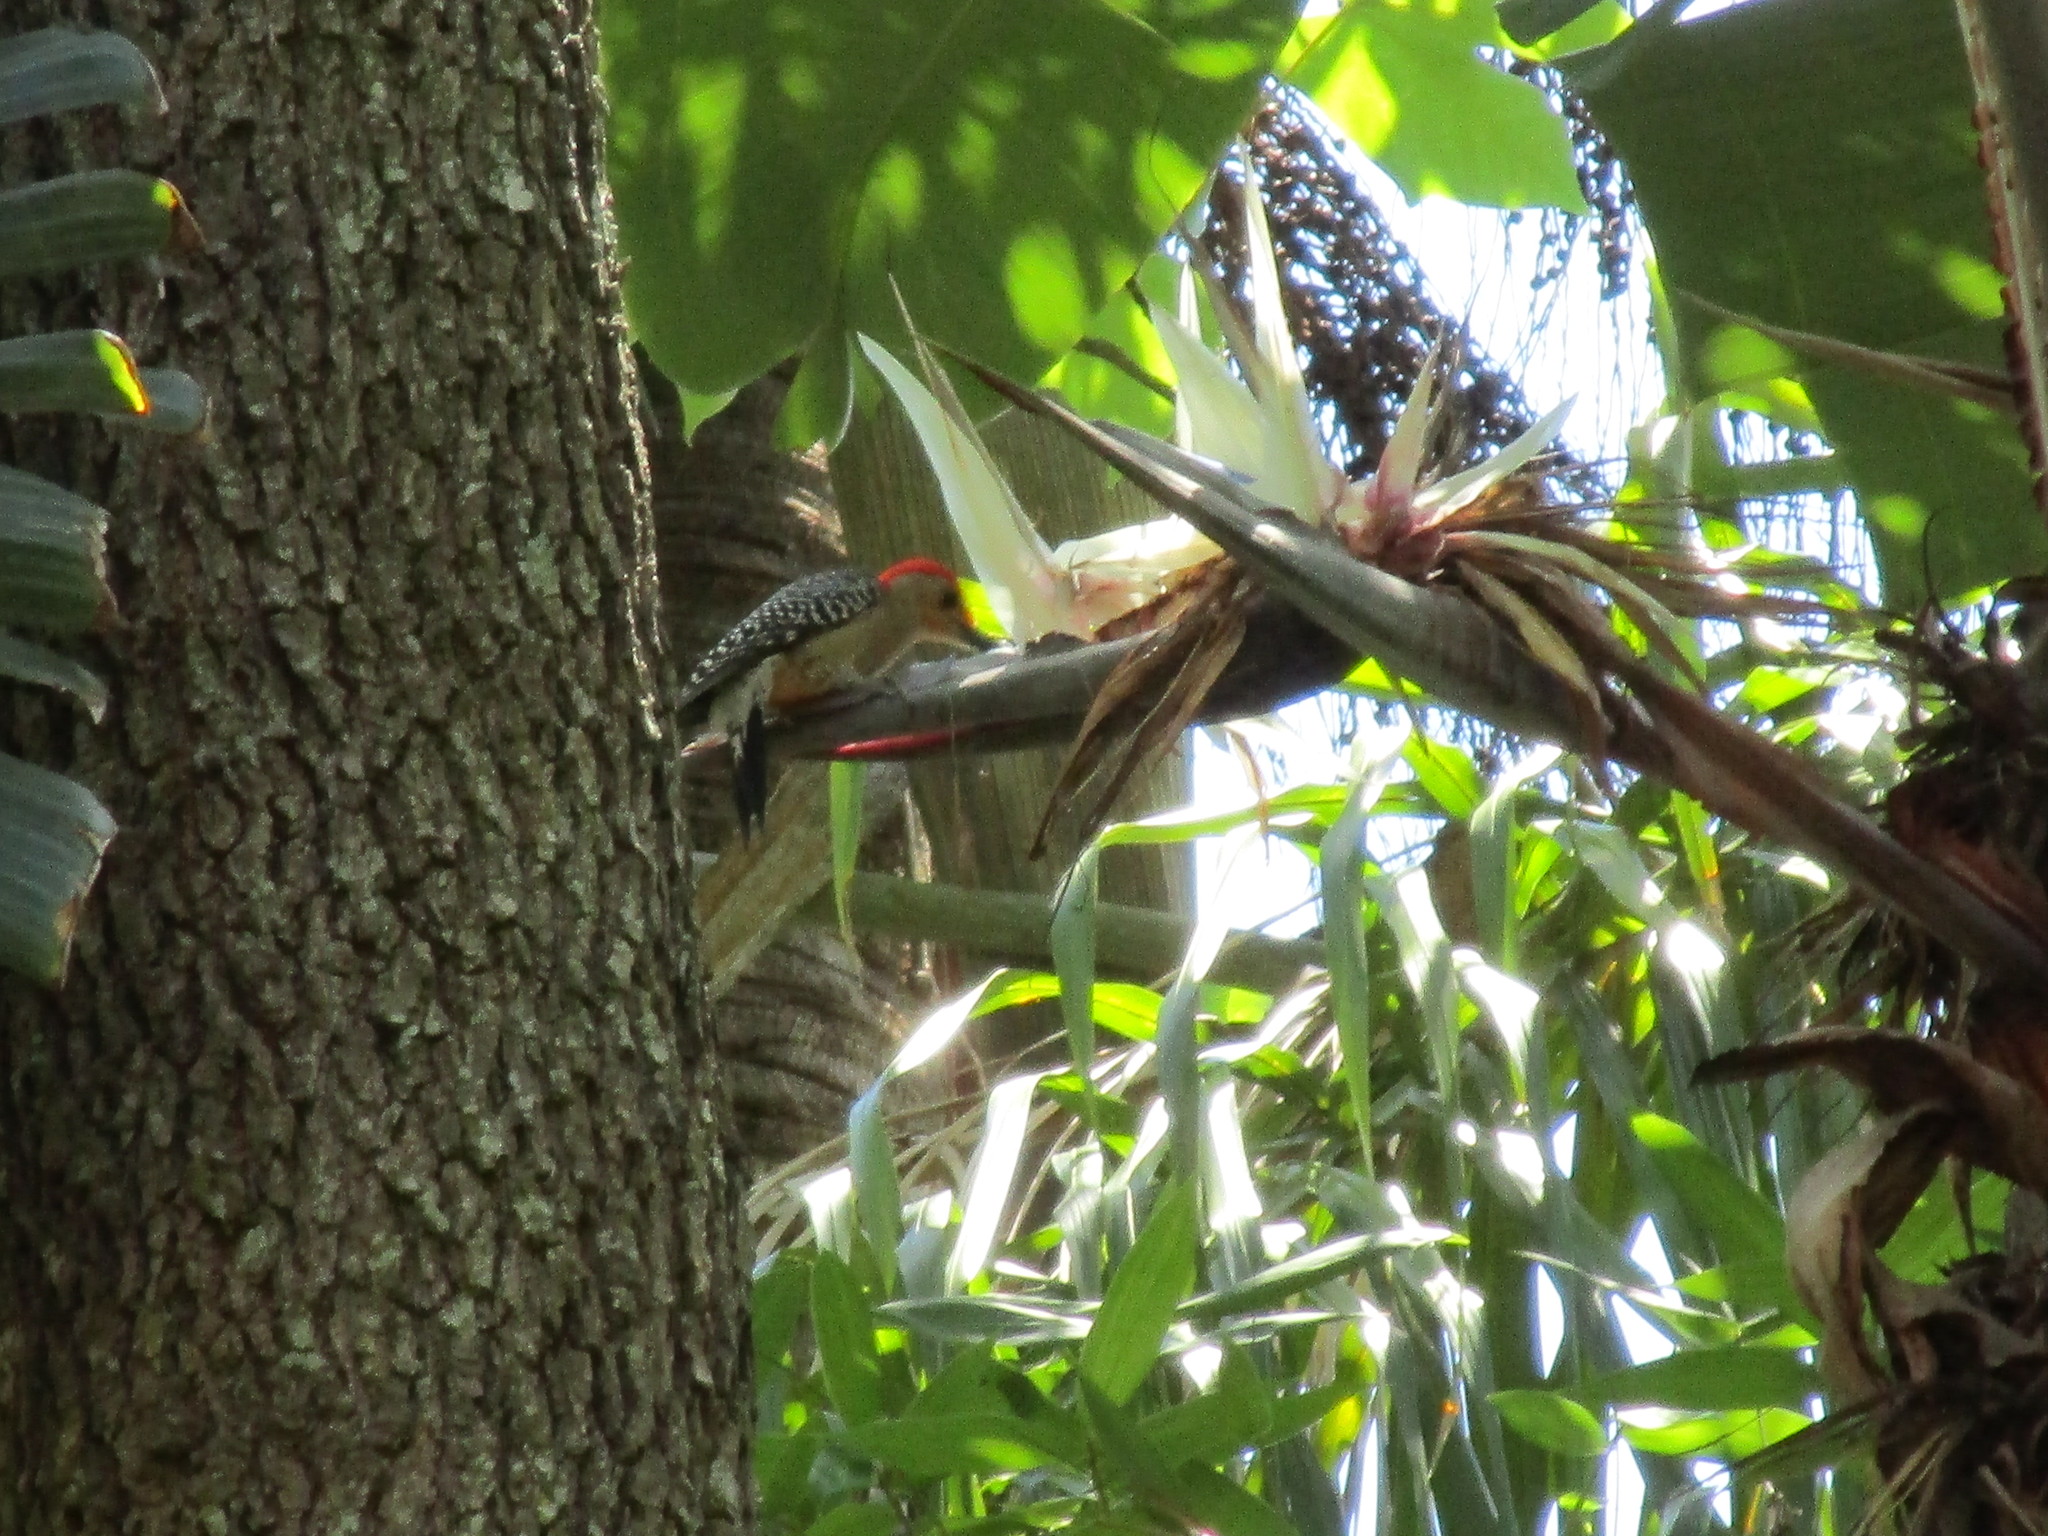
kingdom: Animalia
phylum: Chordata
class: Aves
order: Piciformes
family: Picidae
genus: Melanerpes
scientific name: Melanerpes carolinus
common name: Red-bellied woodpecker
